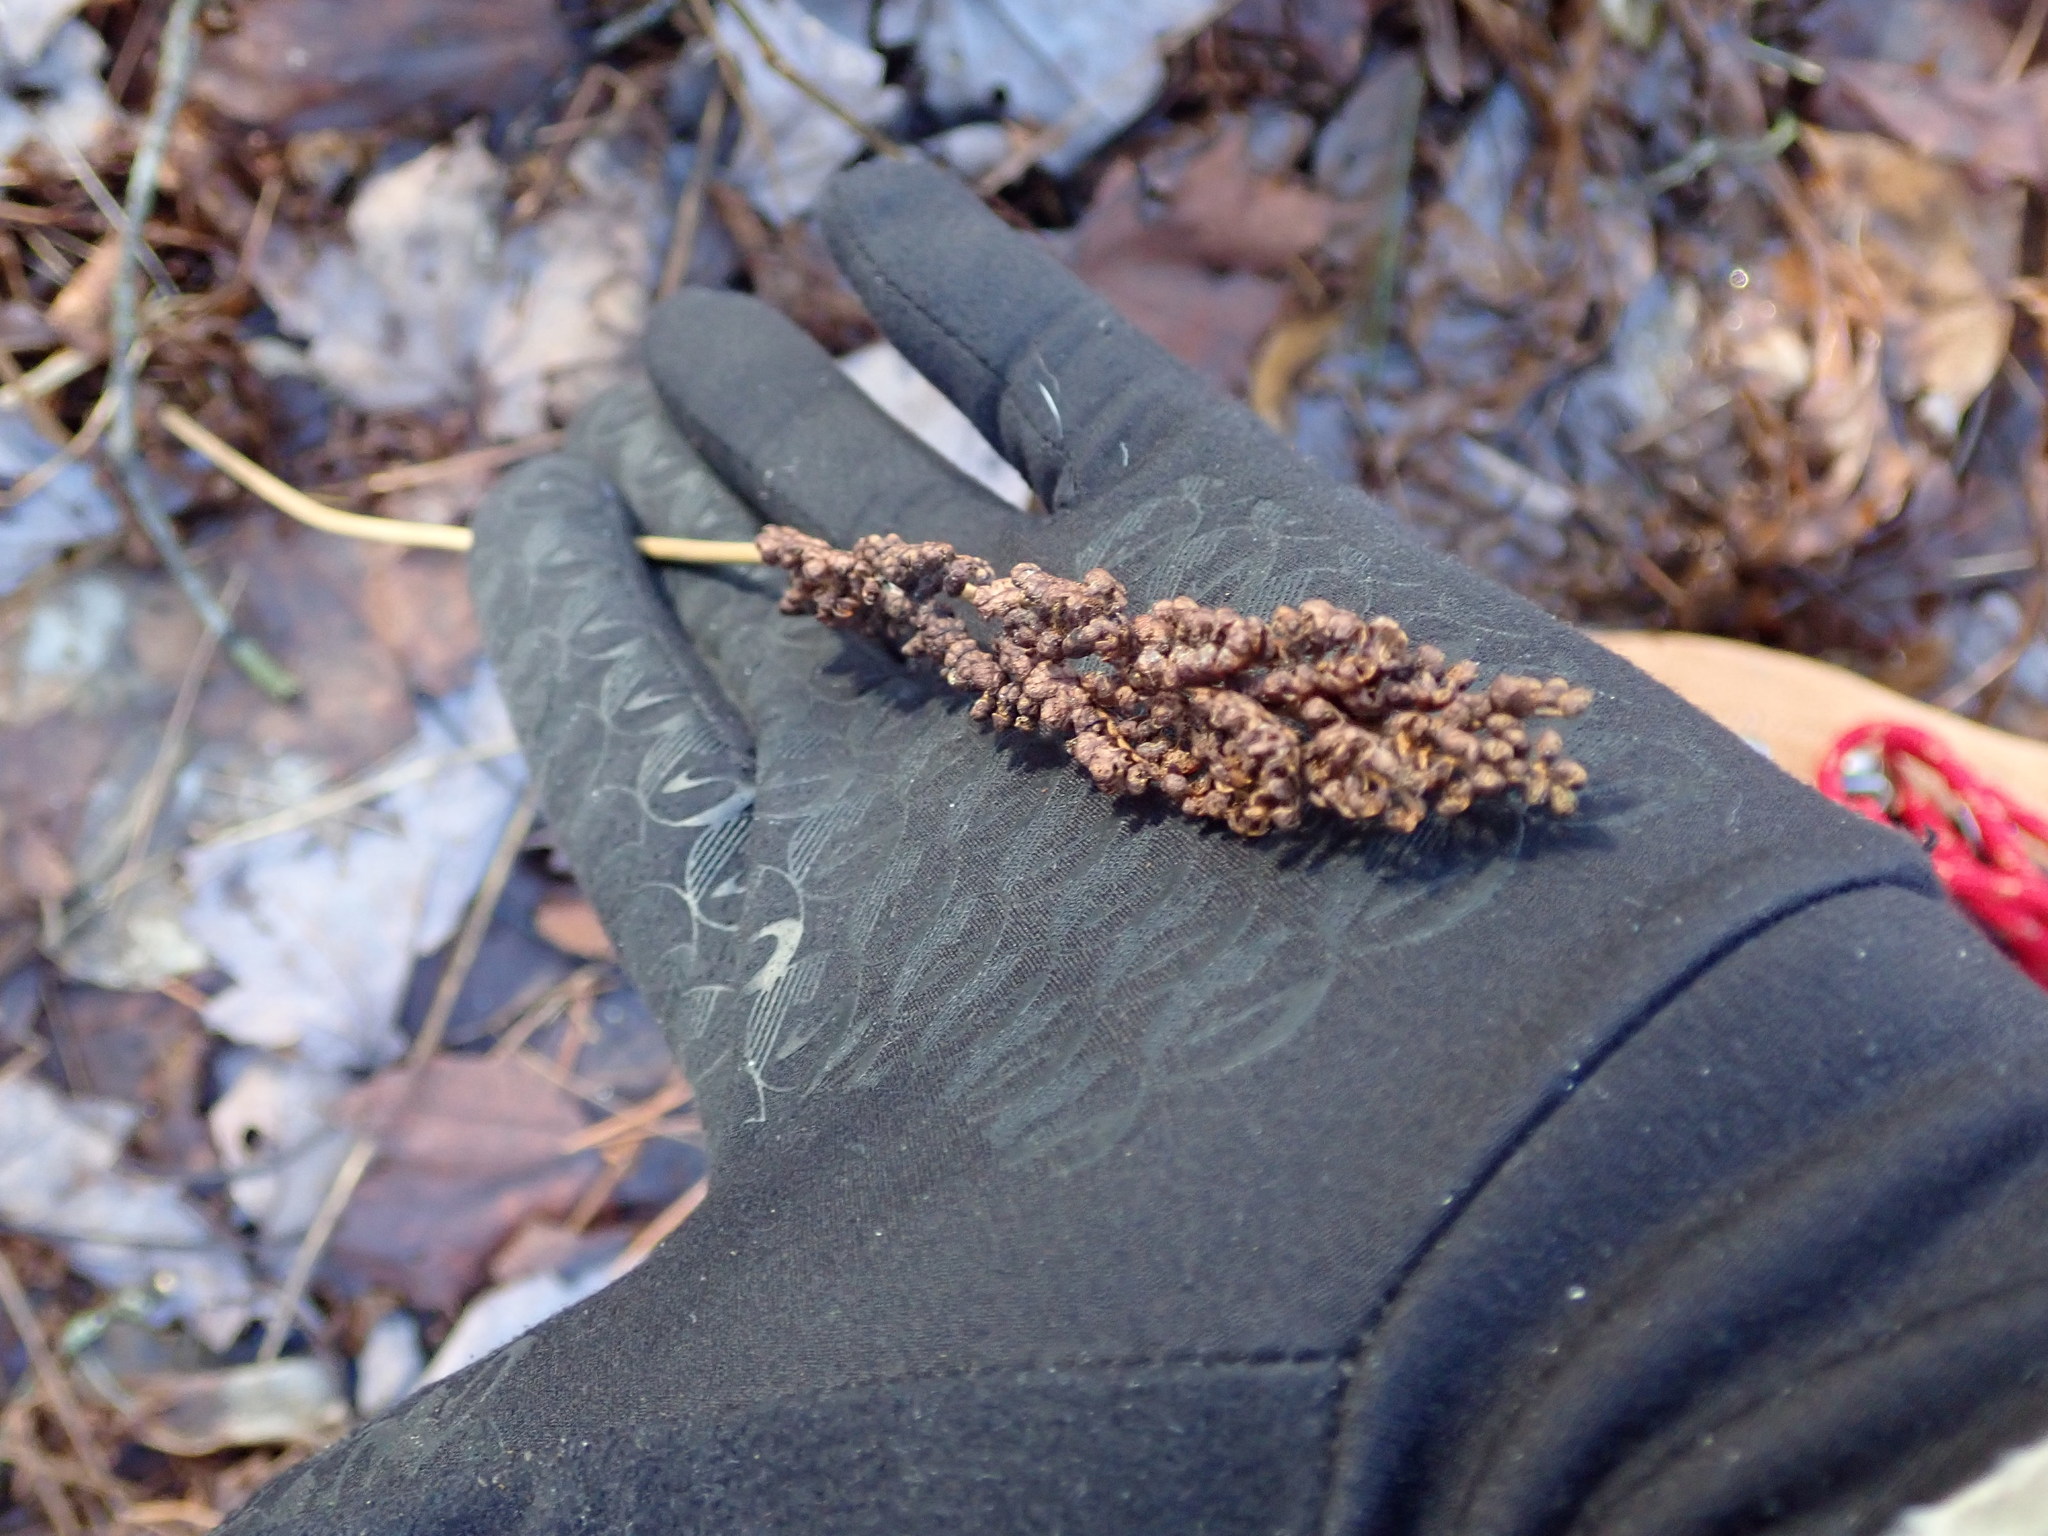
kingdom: Plantae
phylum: Tracheophyta
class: Polypodiopsida
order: Polypodiales
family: Onocleaceae
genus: Onoclea
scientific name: Onoclea sensibilis
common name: Sensitive fern
